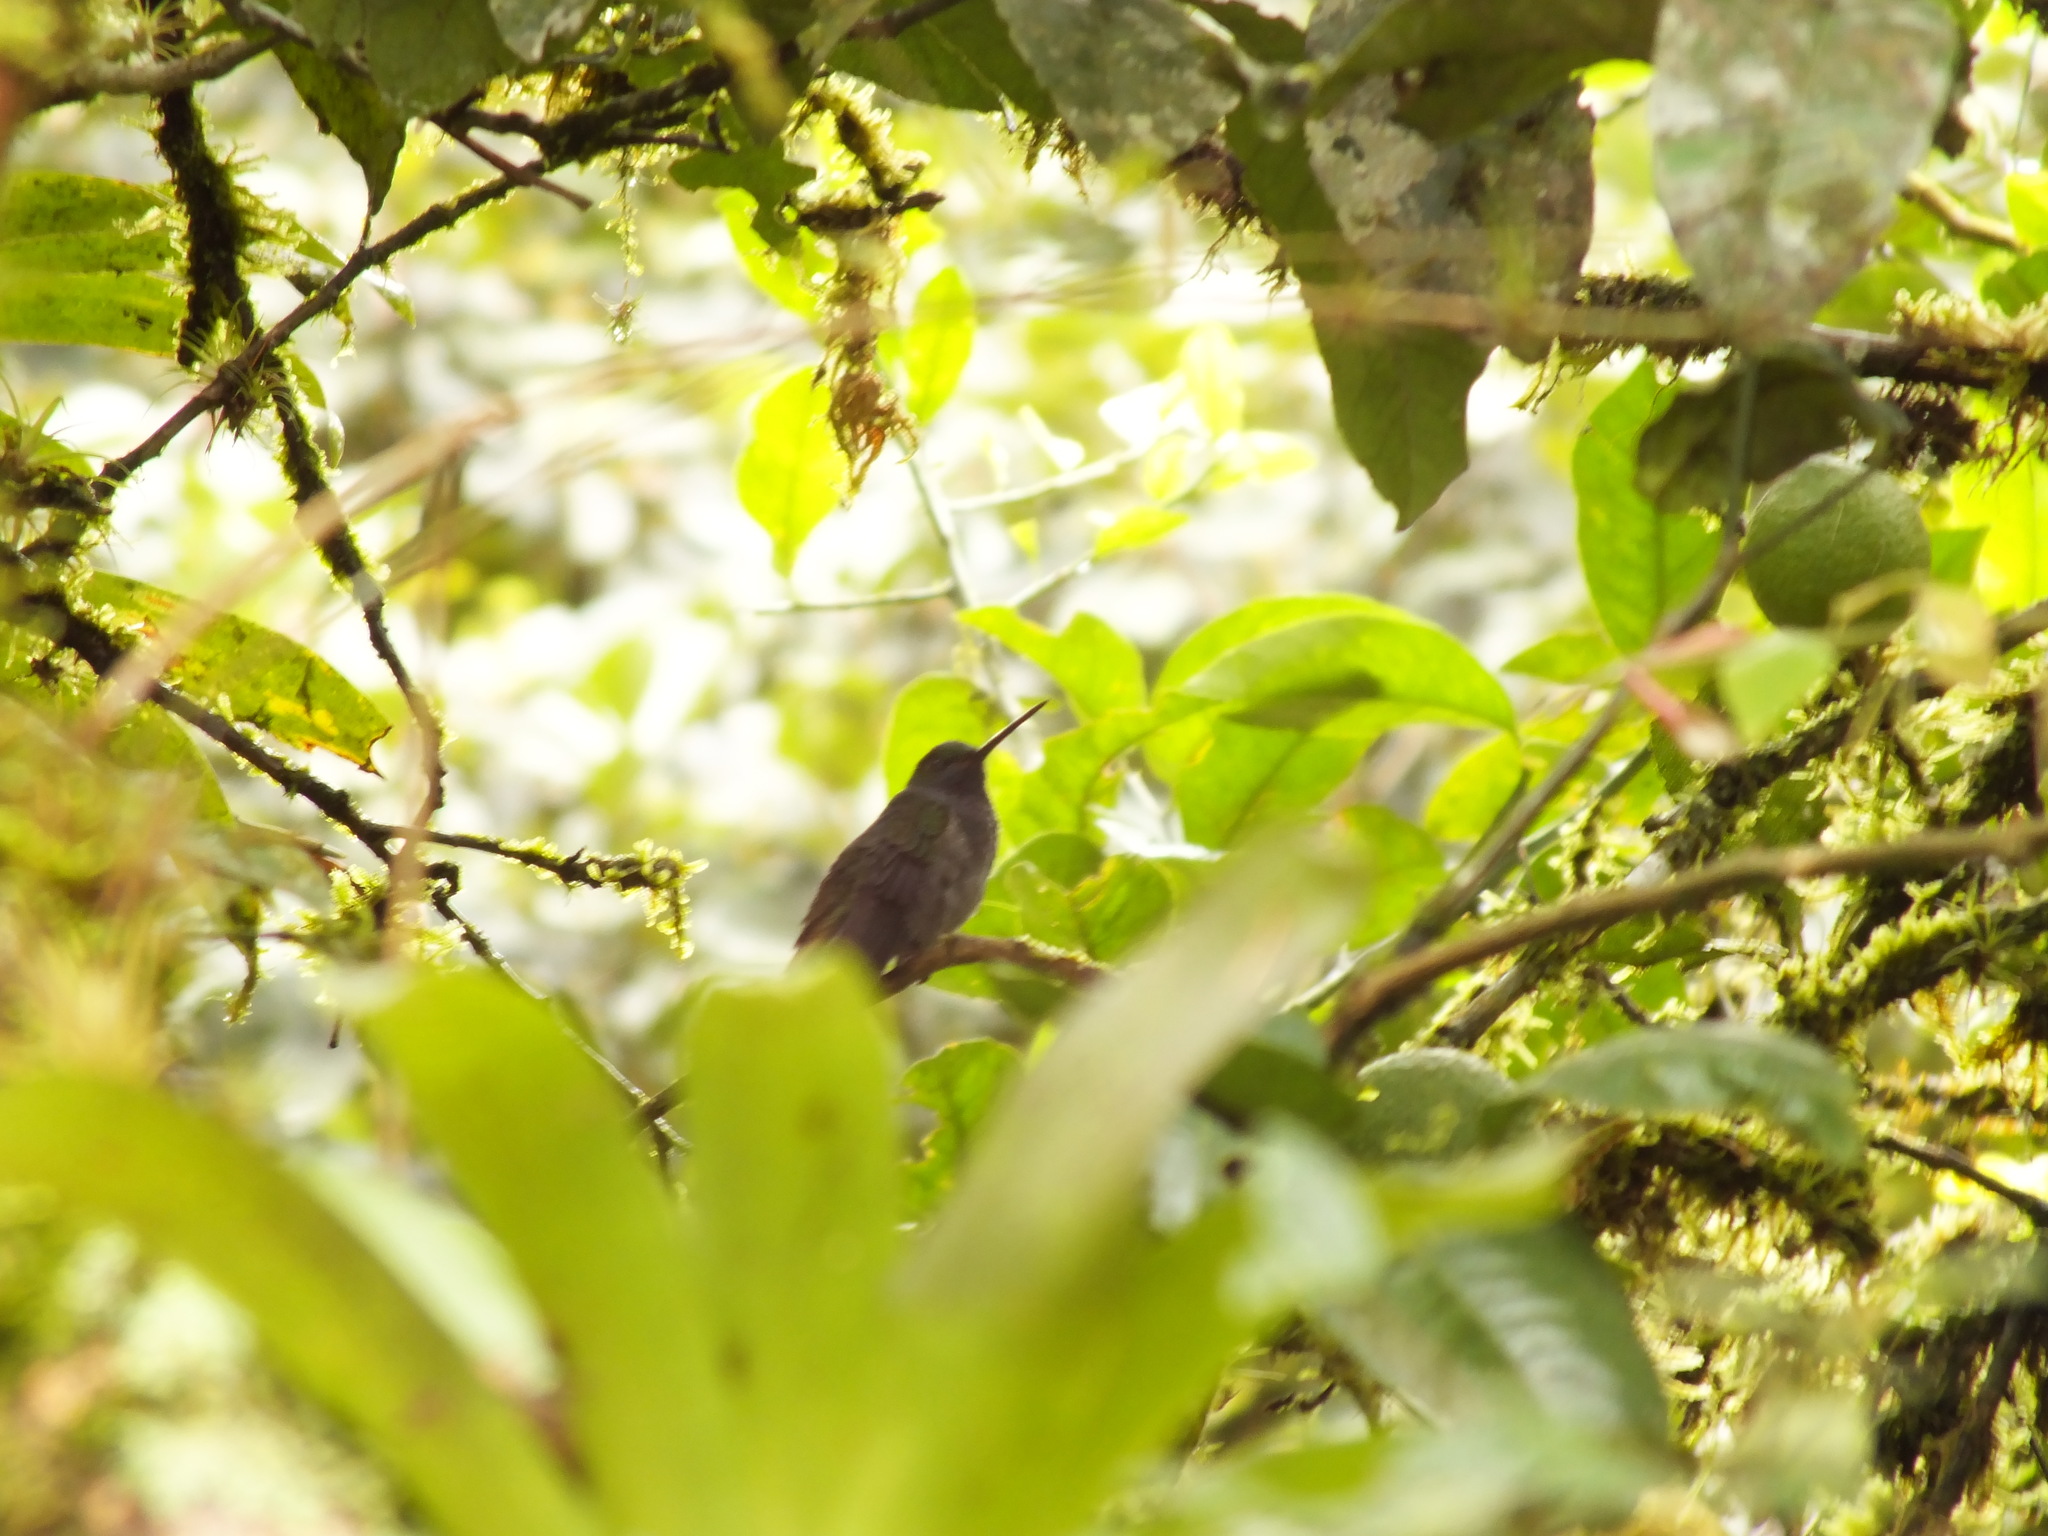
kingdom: Animalia
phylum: Chordata
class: Aves
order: Apodiformes
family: Trochilidae
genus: Urochroa
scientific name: Urochroa leucura
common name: Green-backed hillstar
